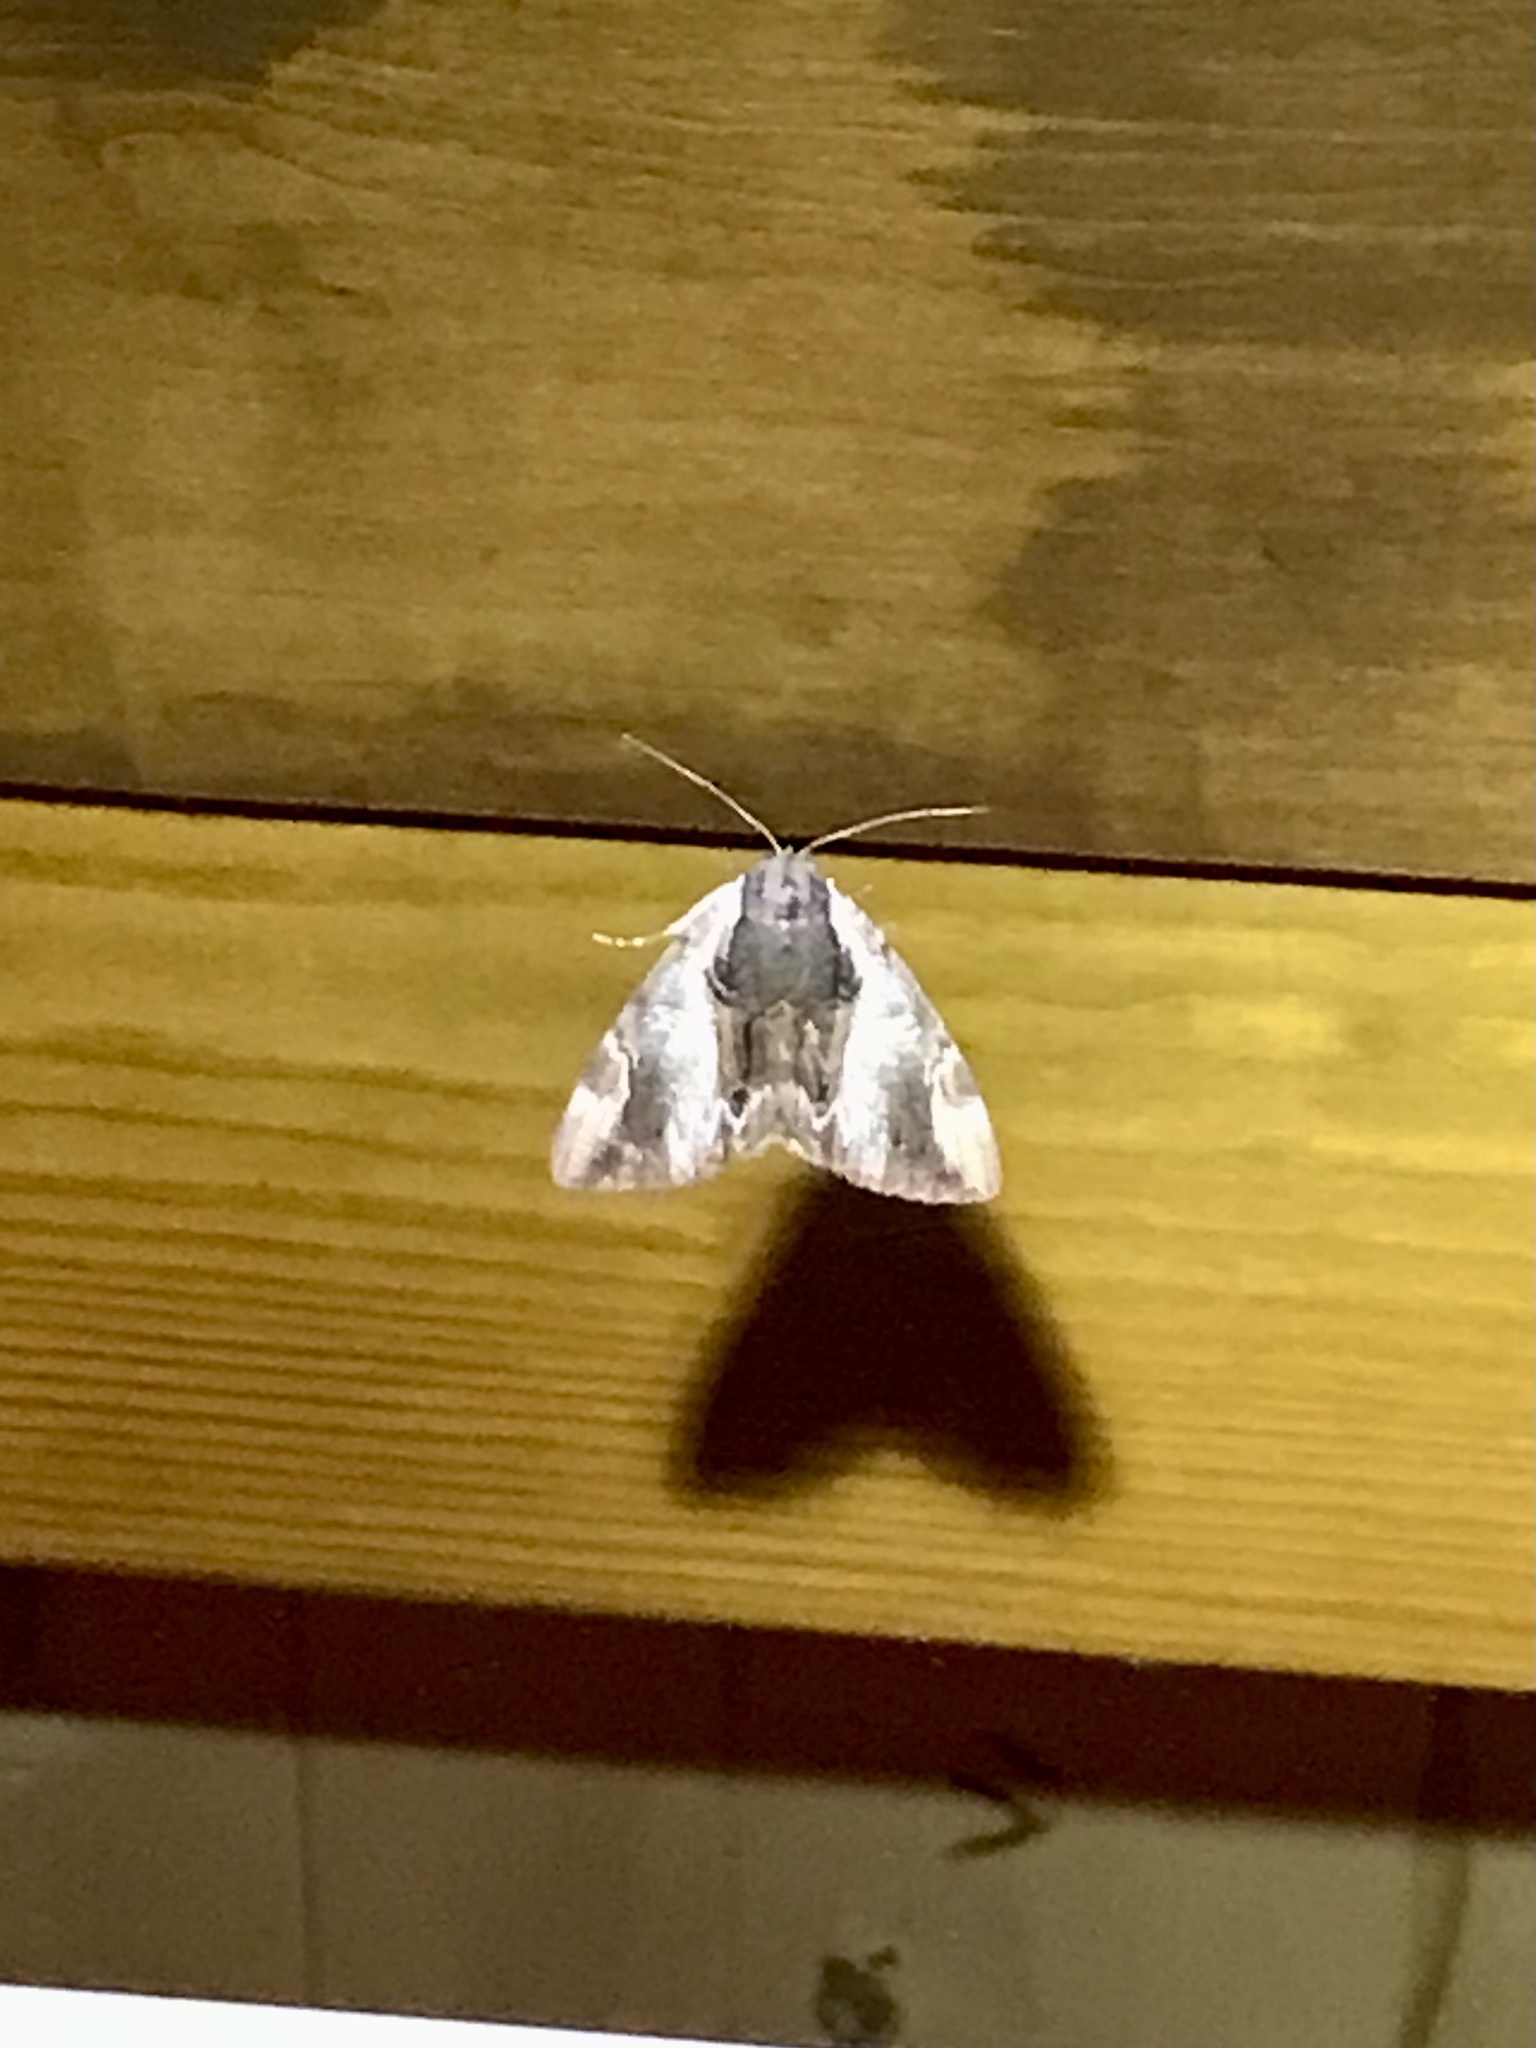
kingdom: Animalia
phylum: Arthropoda
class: Insecta
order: Lepidoptera
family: Erebidae
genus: Catocala
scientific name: Catocala ultronia
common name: Ultronia underwing
